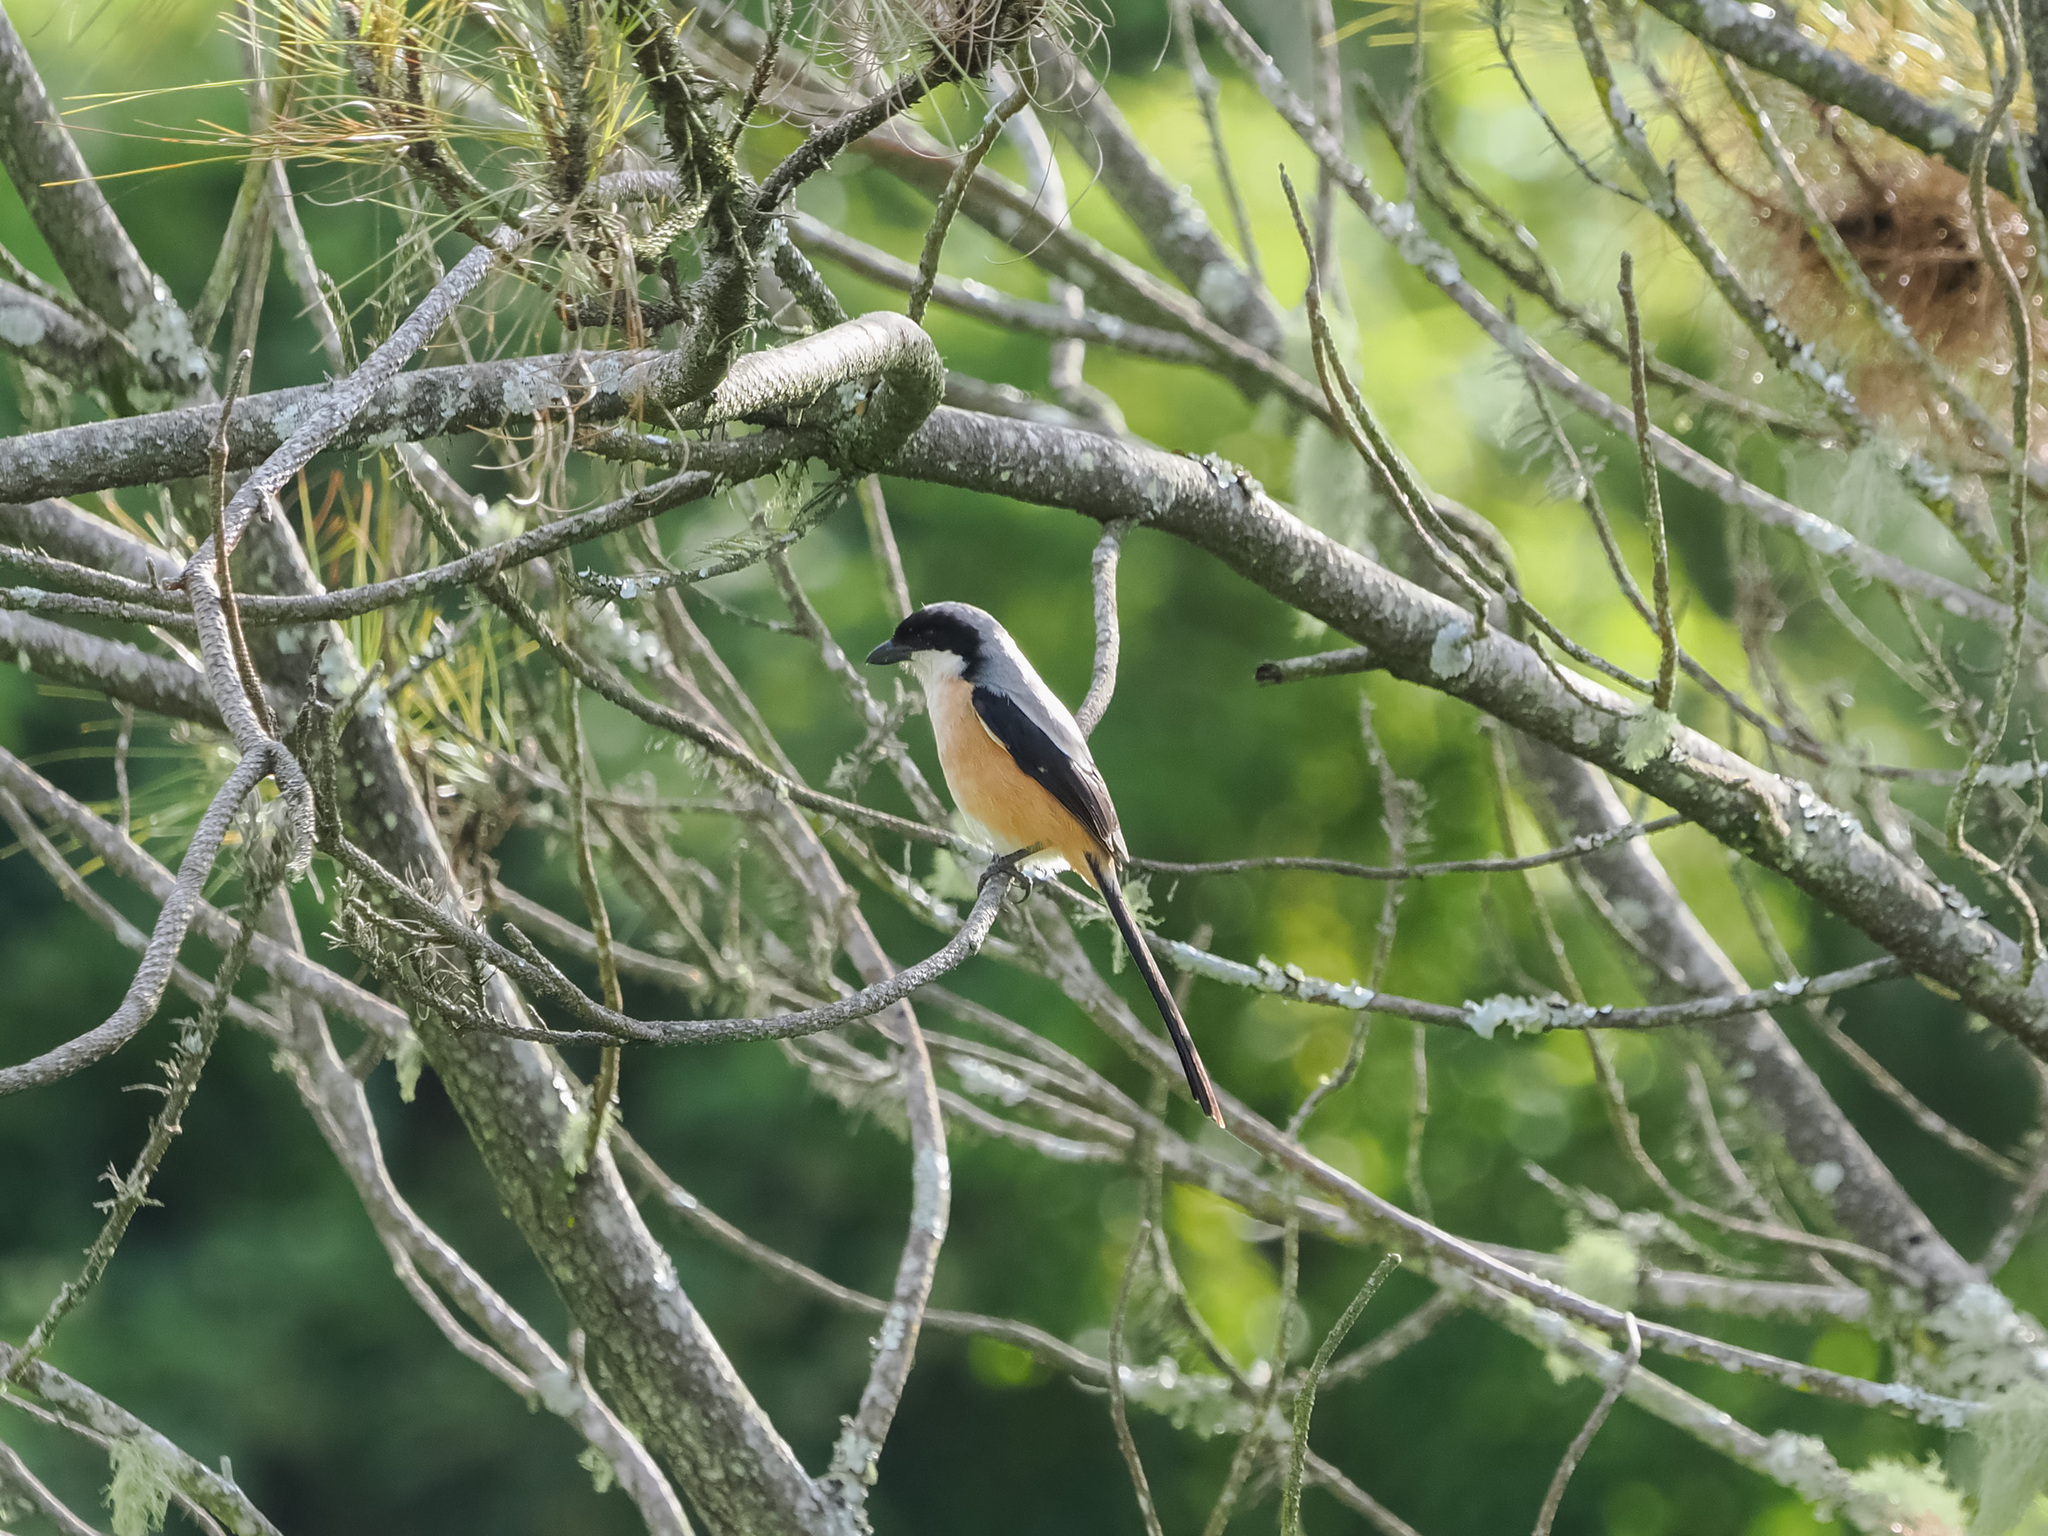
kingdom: Animalia
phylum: Chordata
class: Aves
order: Passeriformes
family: Laniidae
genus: Lanius
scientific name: Lanius schach
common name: Long-tailed shrike
